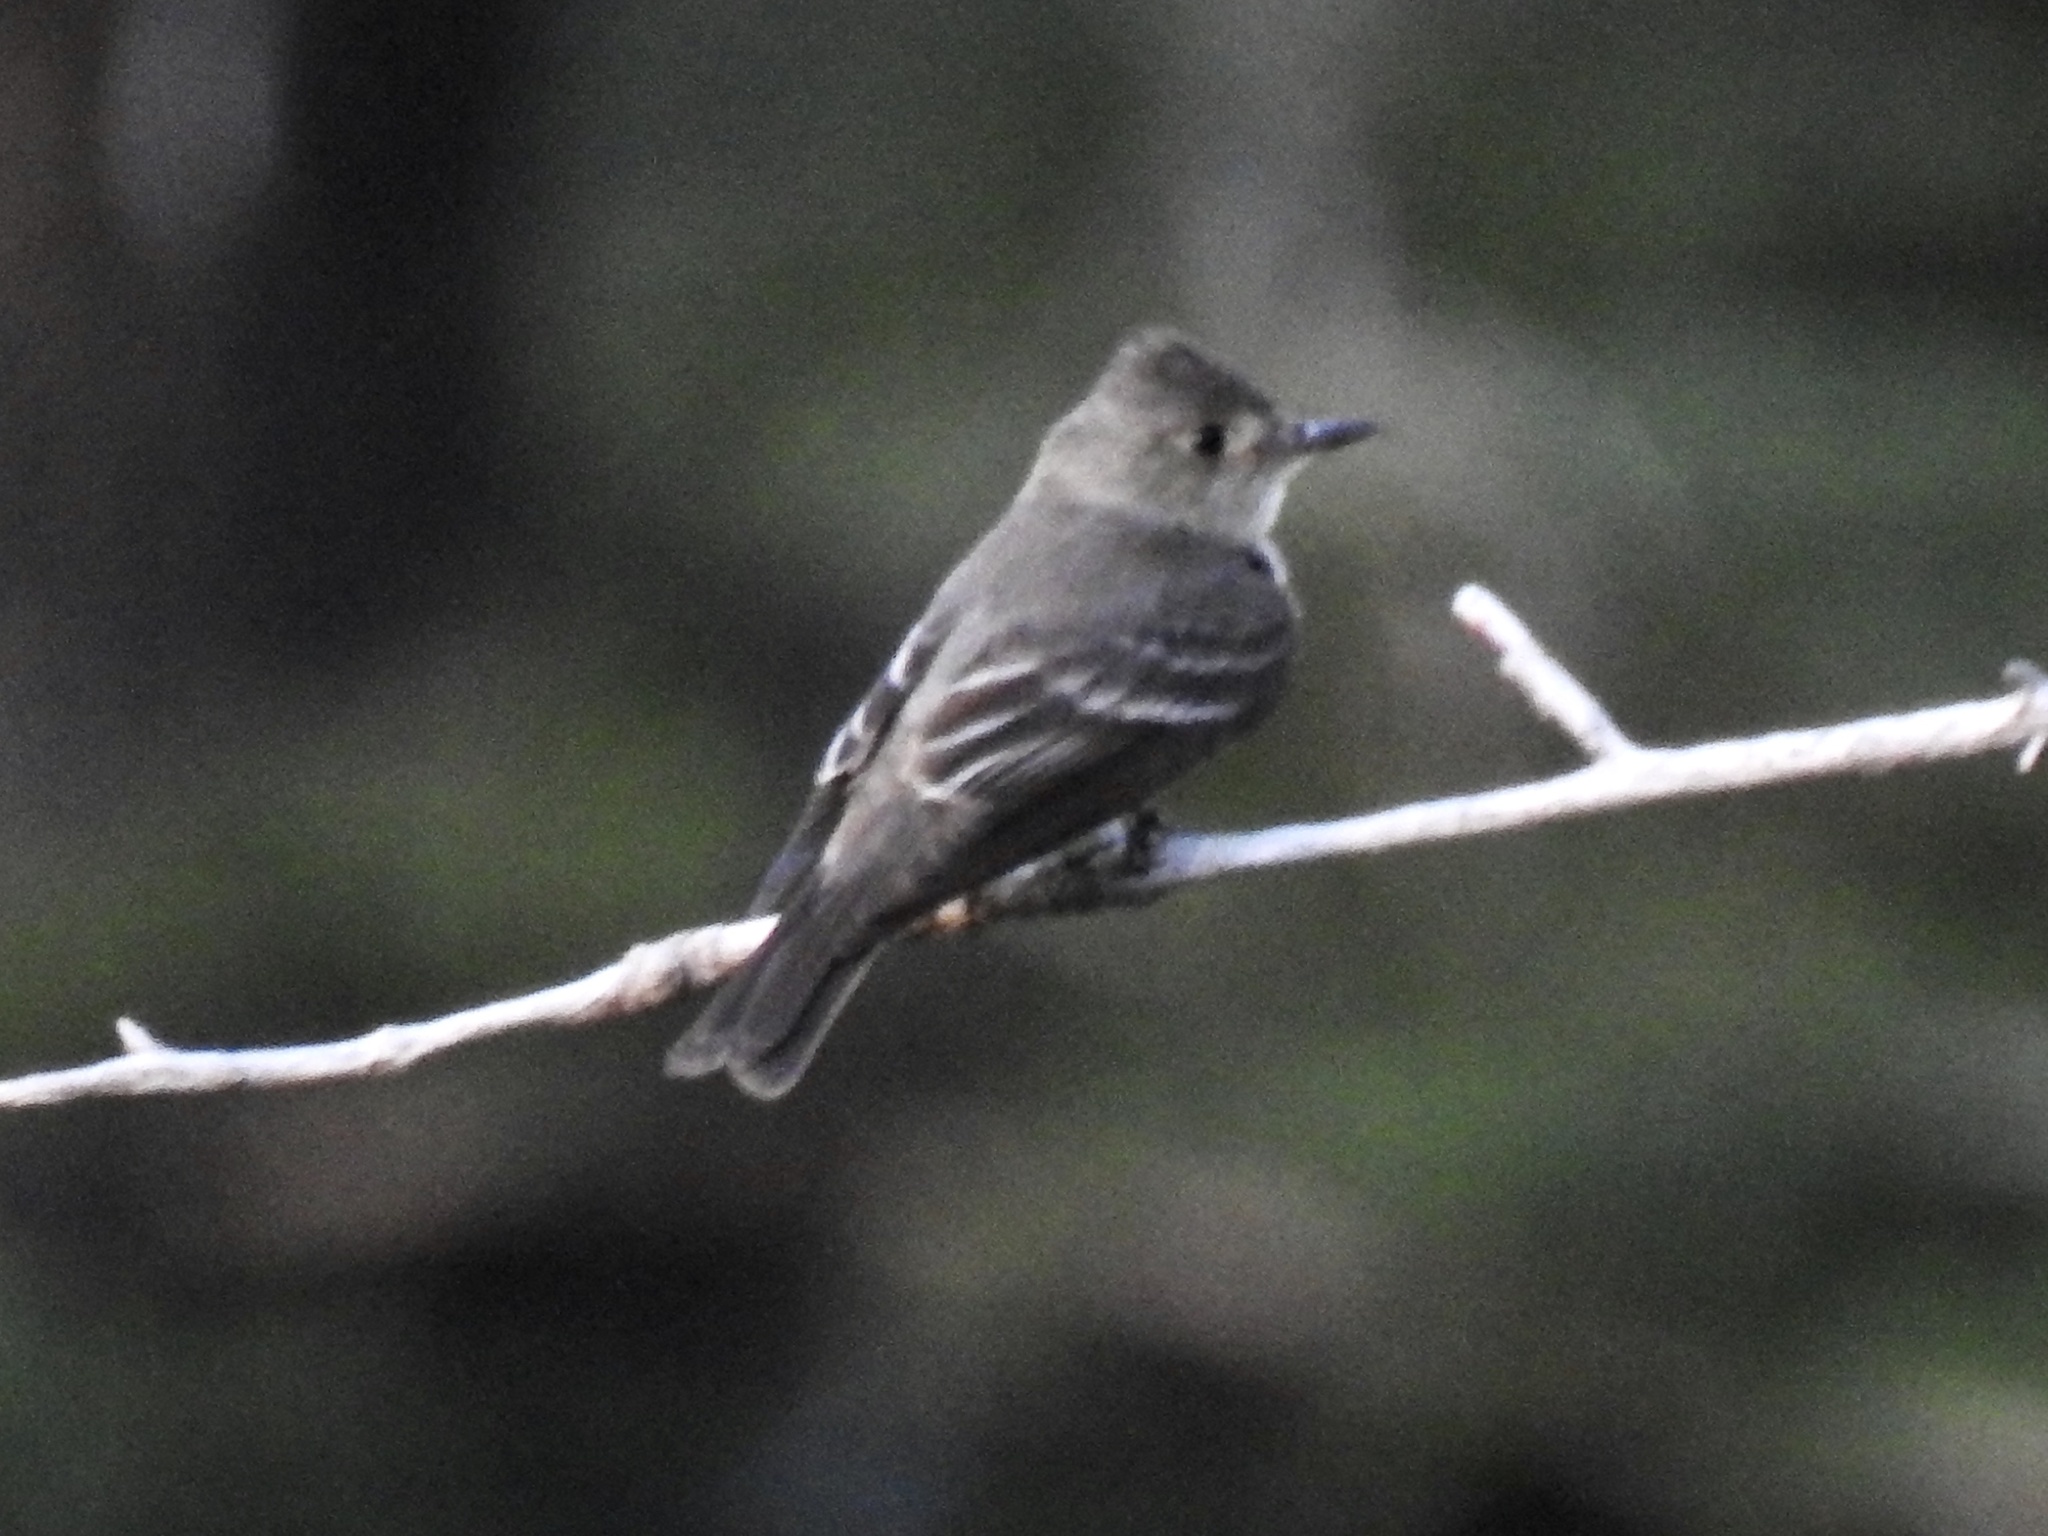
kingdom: Animalia
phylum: Chordata
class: Aves
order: Passeriformes
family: Tyrannidae
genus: Contopus
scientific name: Contopus sordidulus
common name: Western wood-pewee
